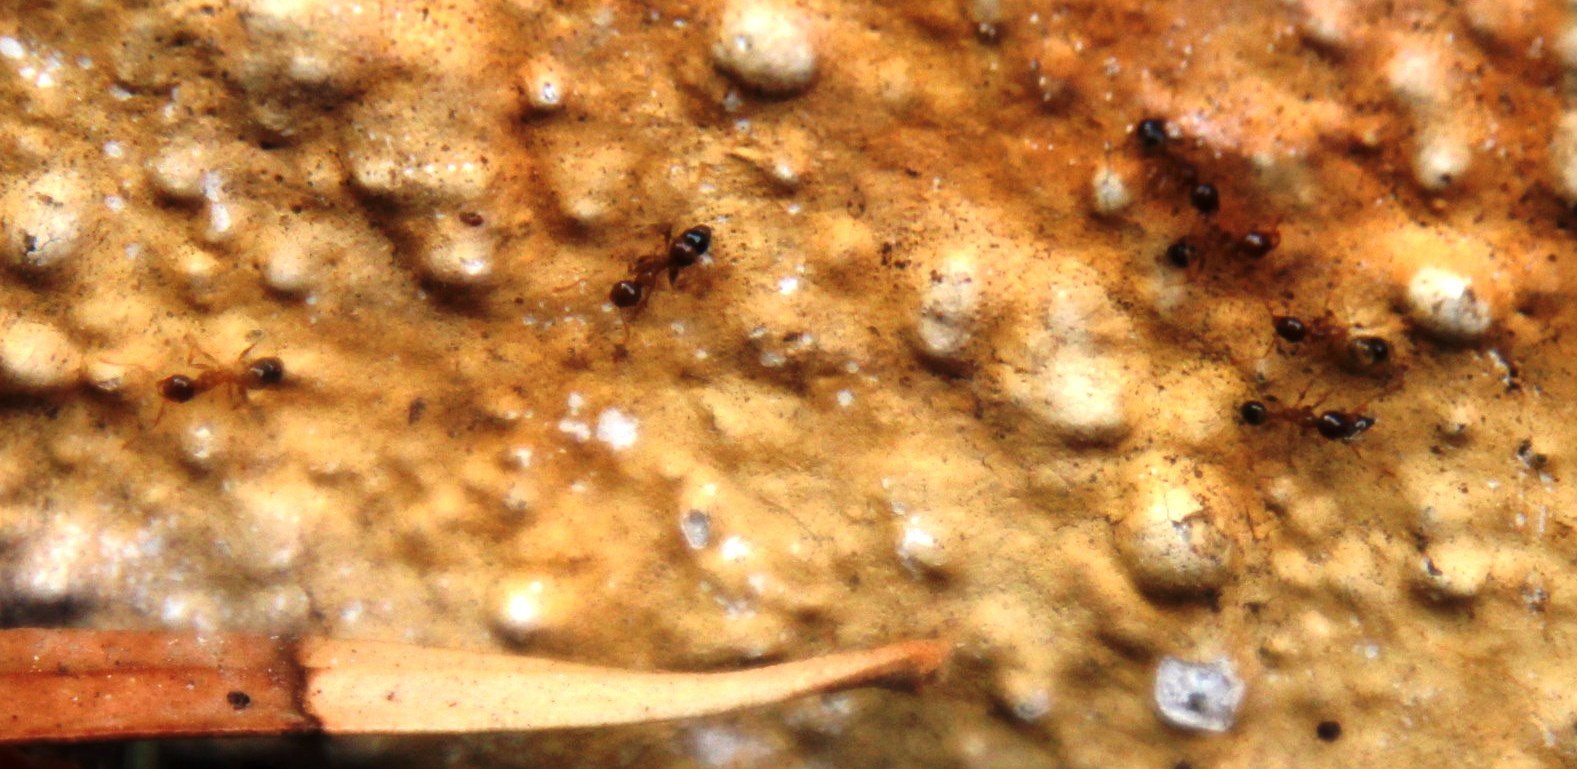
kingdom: Animalia
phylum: Arthropoda
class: Insecta
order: Hymenoptera
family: Formicidae
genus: Pheidole
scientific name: Pheidole megacephala
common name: Bigheaded ant
